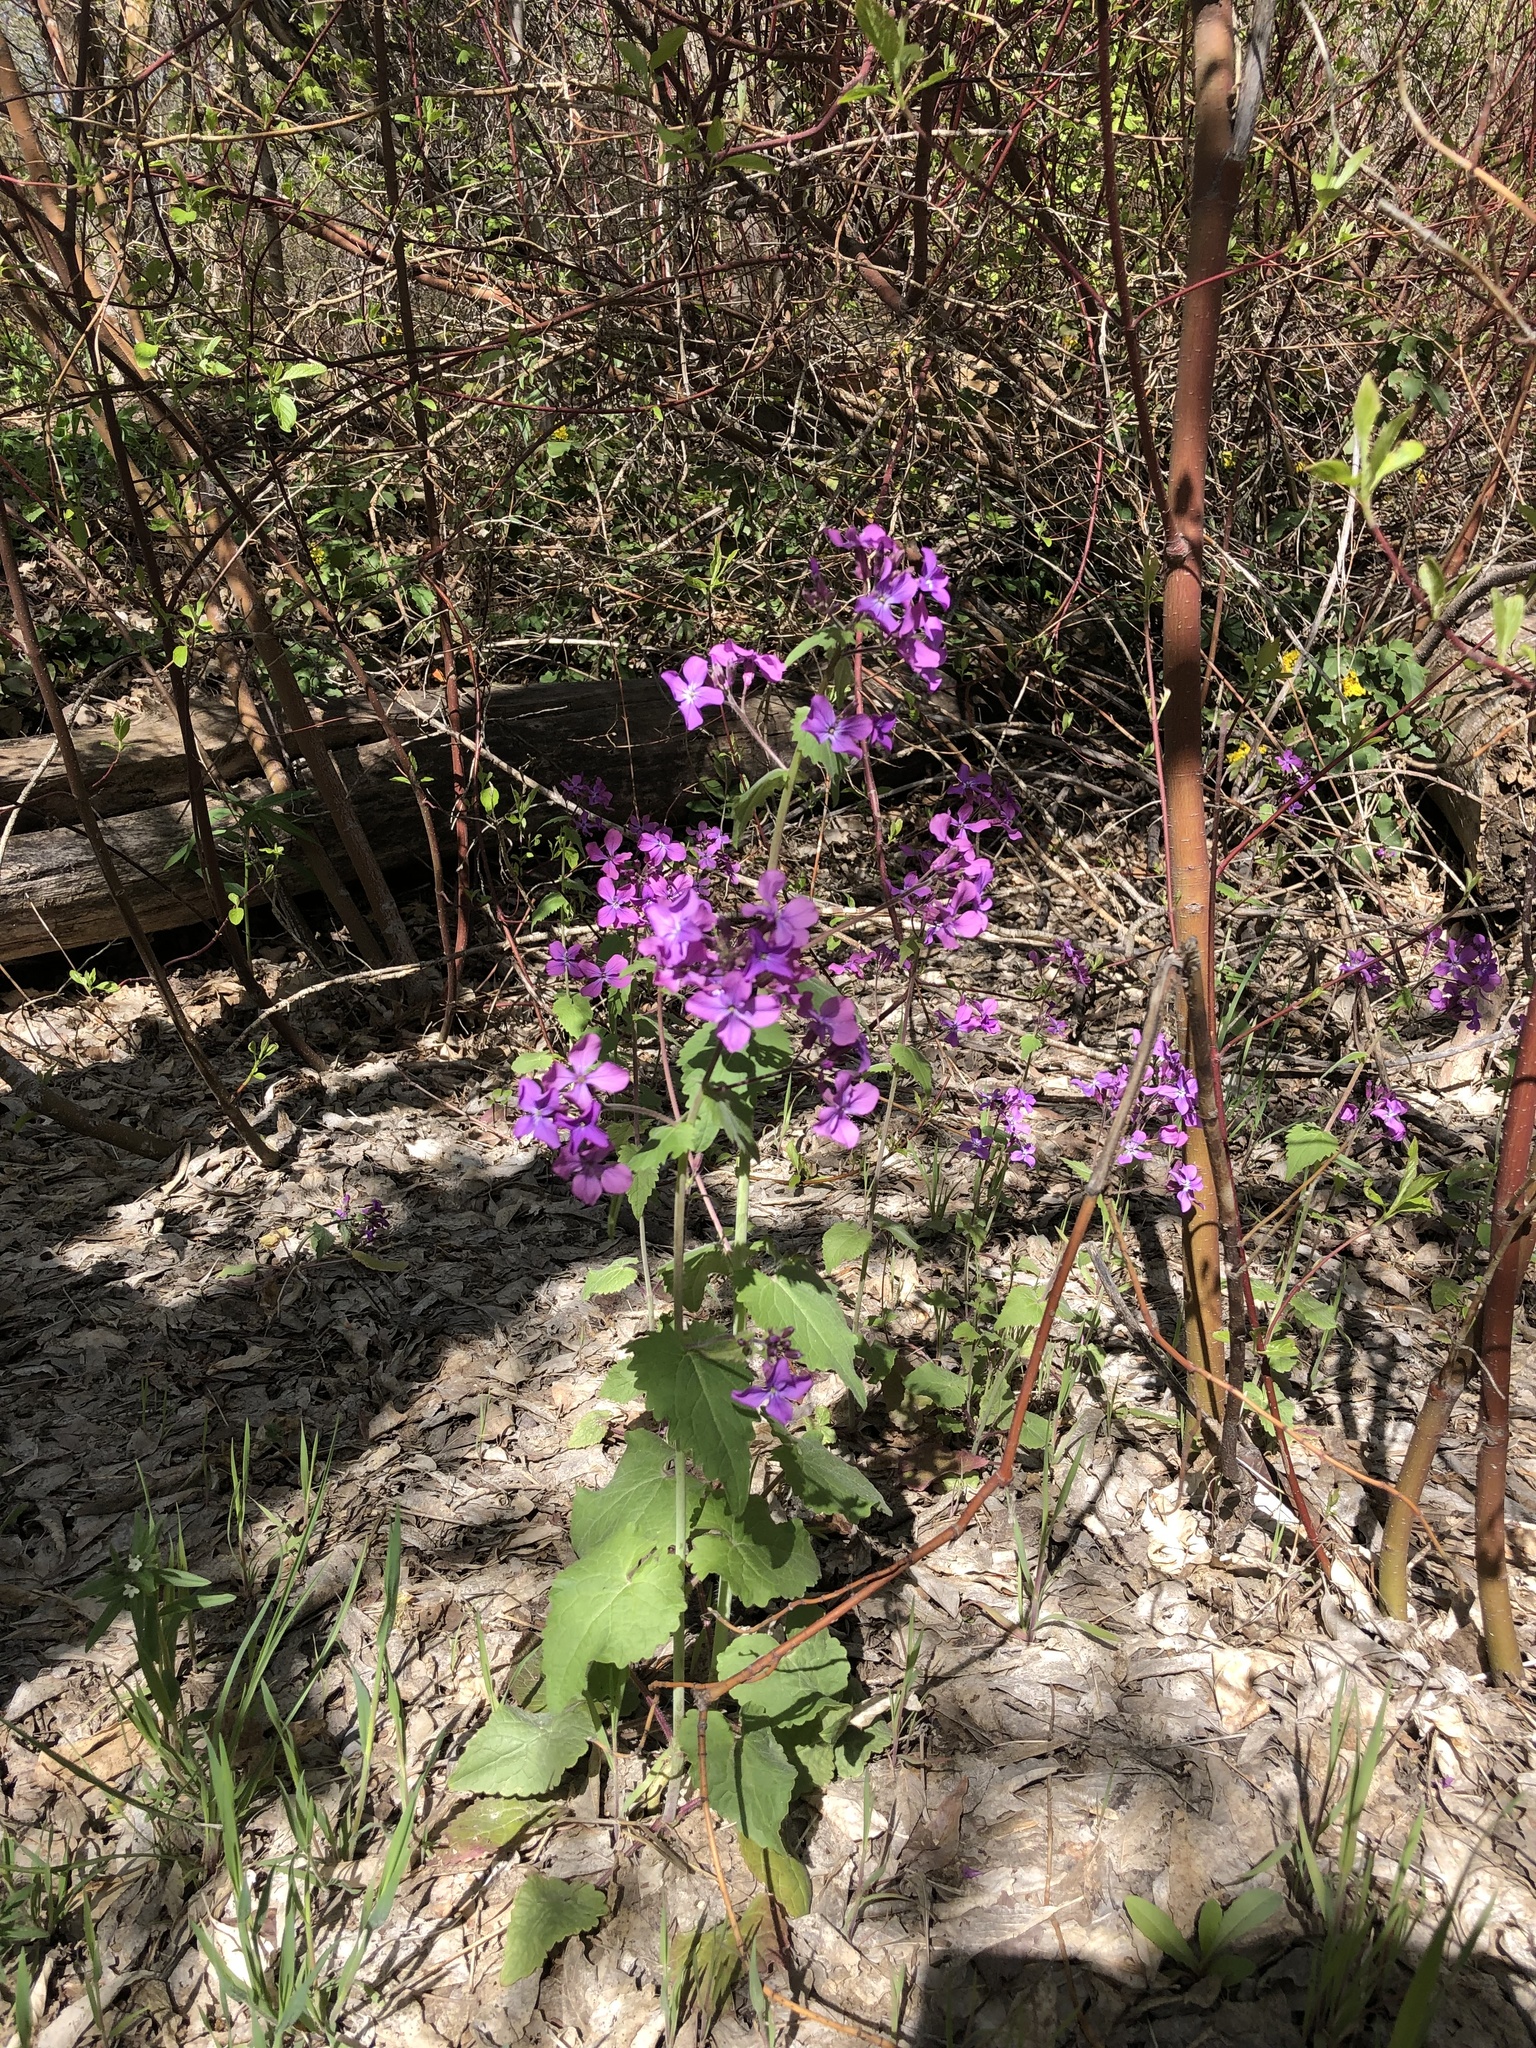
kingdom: Plantae
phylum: Tracheophyta
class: Magnoliopsida
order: Brassicales
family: Brassicaceae
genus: Lunaria
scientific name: Lunaria annua
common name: Honesty
